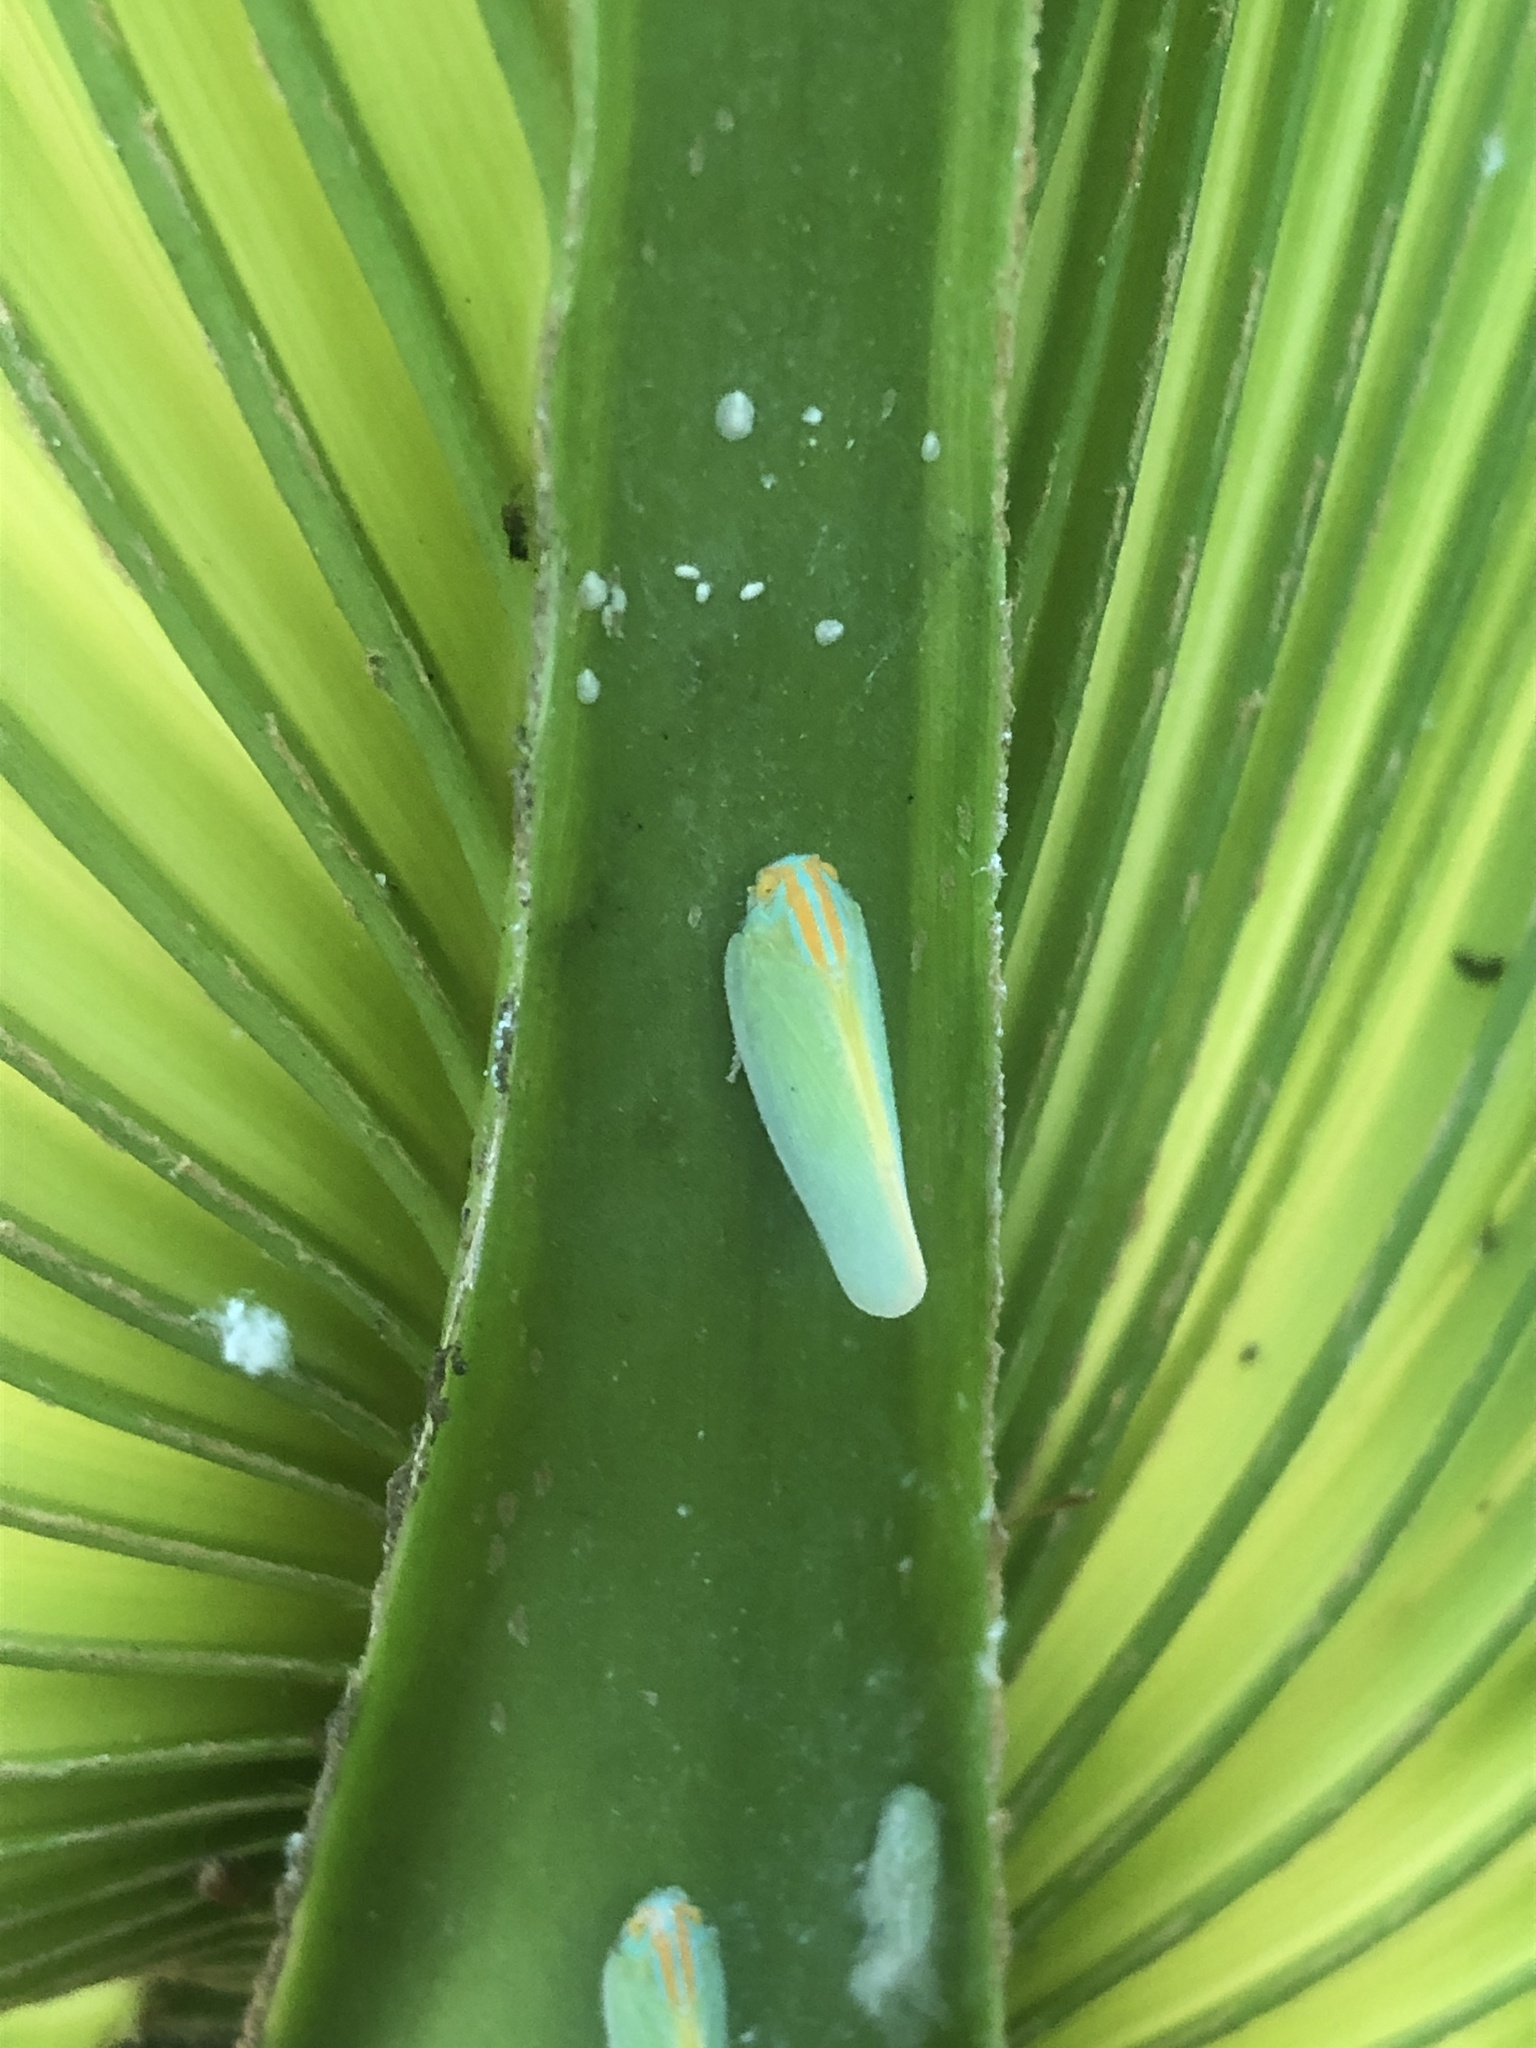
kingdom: Animalia
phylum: Arthropoda
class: Insecta
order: Hemiptera
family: Flatidae
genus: Ormenaria
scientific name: Ormenaria rufifascia
